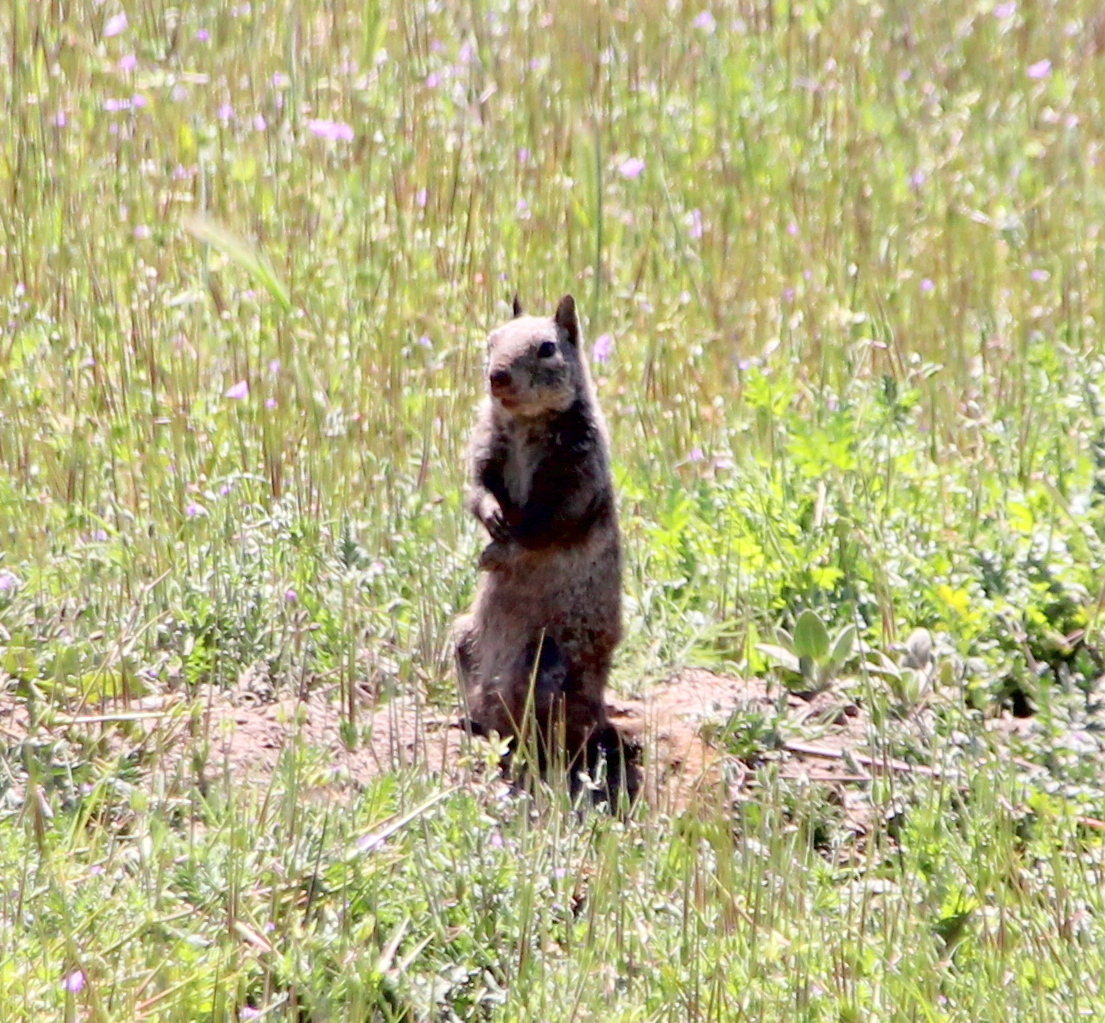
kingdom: Animalia
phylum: Chordata
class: Mammalia
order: Rodentia
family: Sciuridae
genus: Otospermophilus
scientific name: Otospermophilus beecheyi
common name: California ground squirrel
